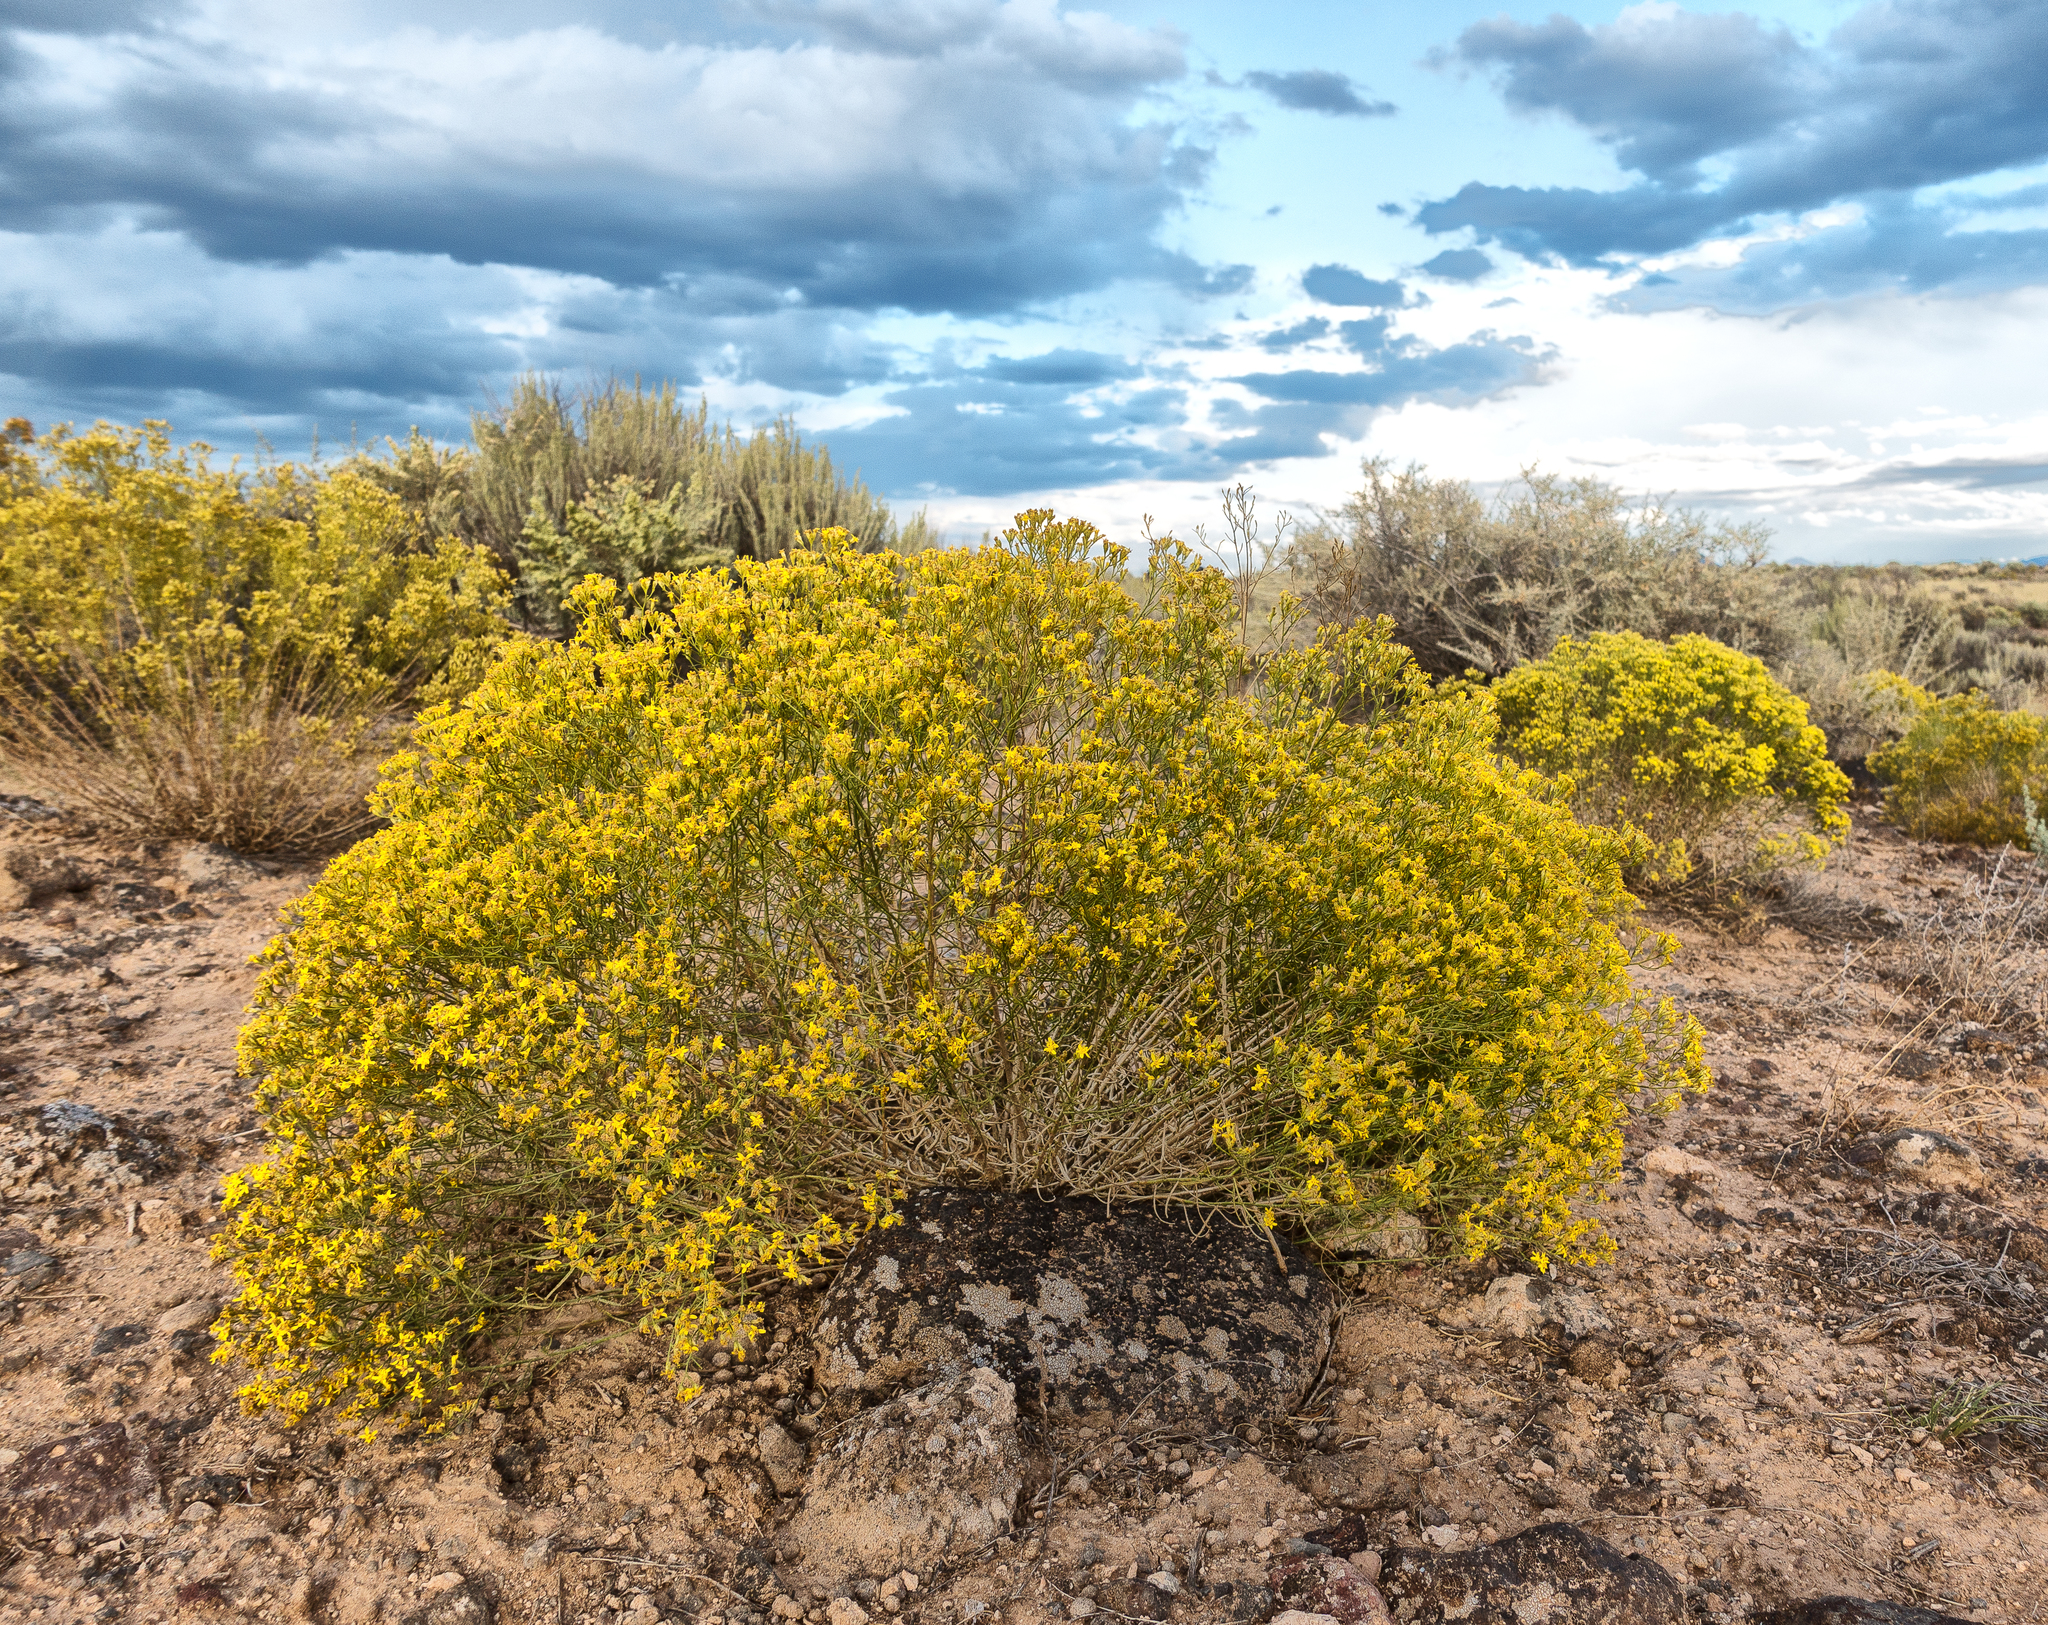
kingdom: Plantae
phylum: Tracheophyta
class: Magnoliopsida
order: Asterales
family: Asteraceae
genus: Gutierrezia
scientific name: Gutierrezia sarothrae
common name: Broom snakeweed
